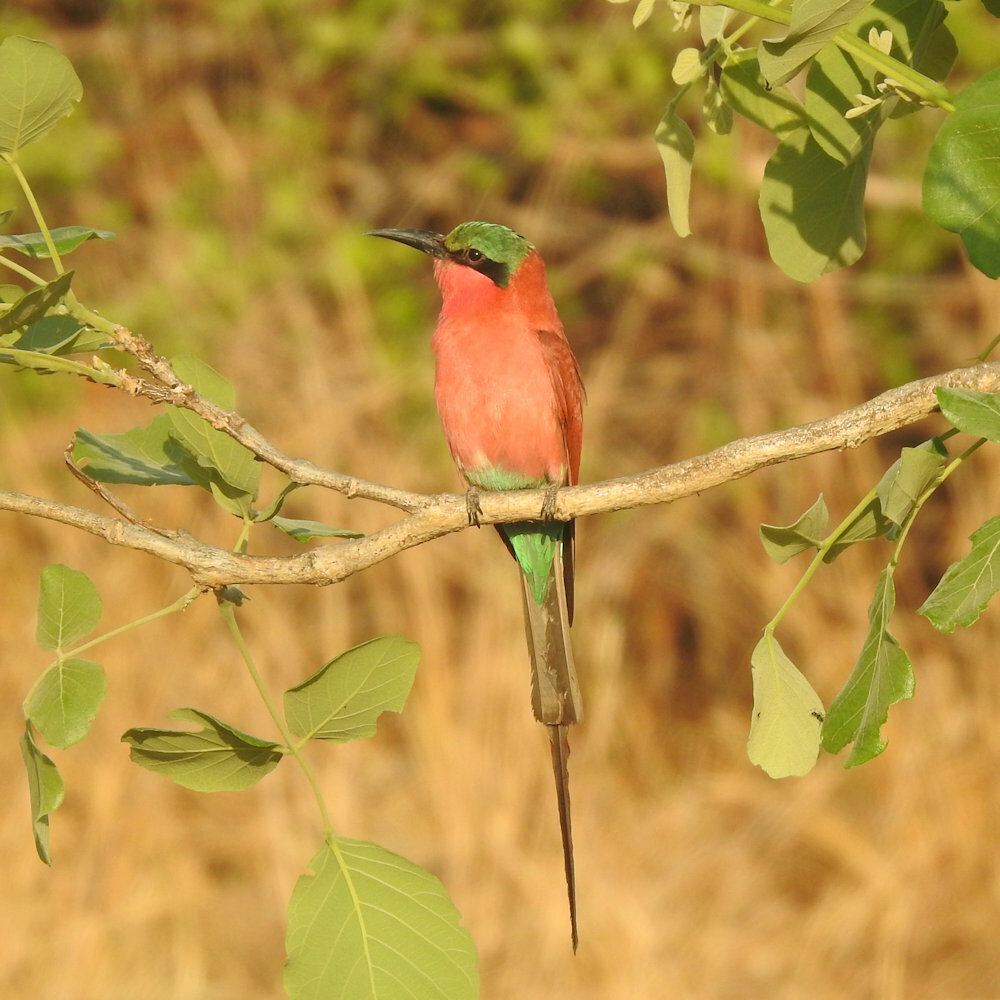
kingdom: Animalia
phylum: Chordata
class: Aves
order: Coraciiformes
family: Meropidae
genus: Merops
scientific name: Merops nubicoides
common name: Southern carmine bee-eater
